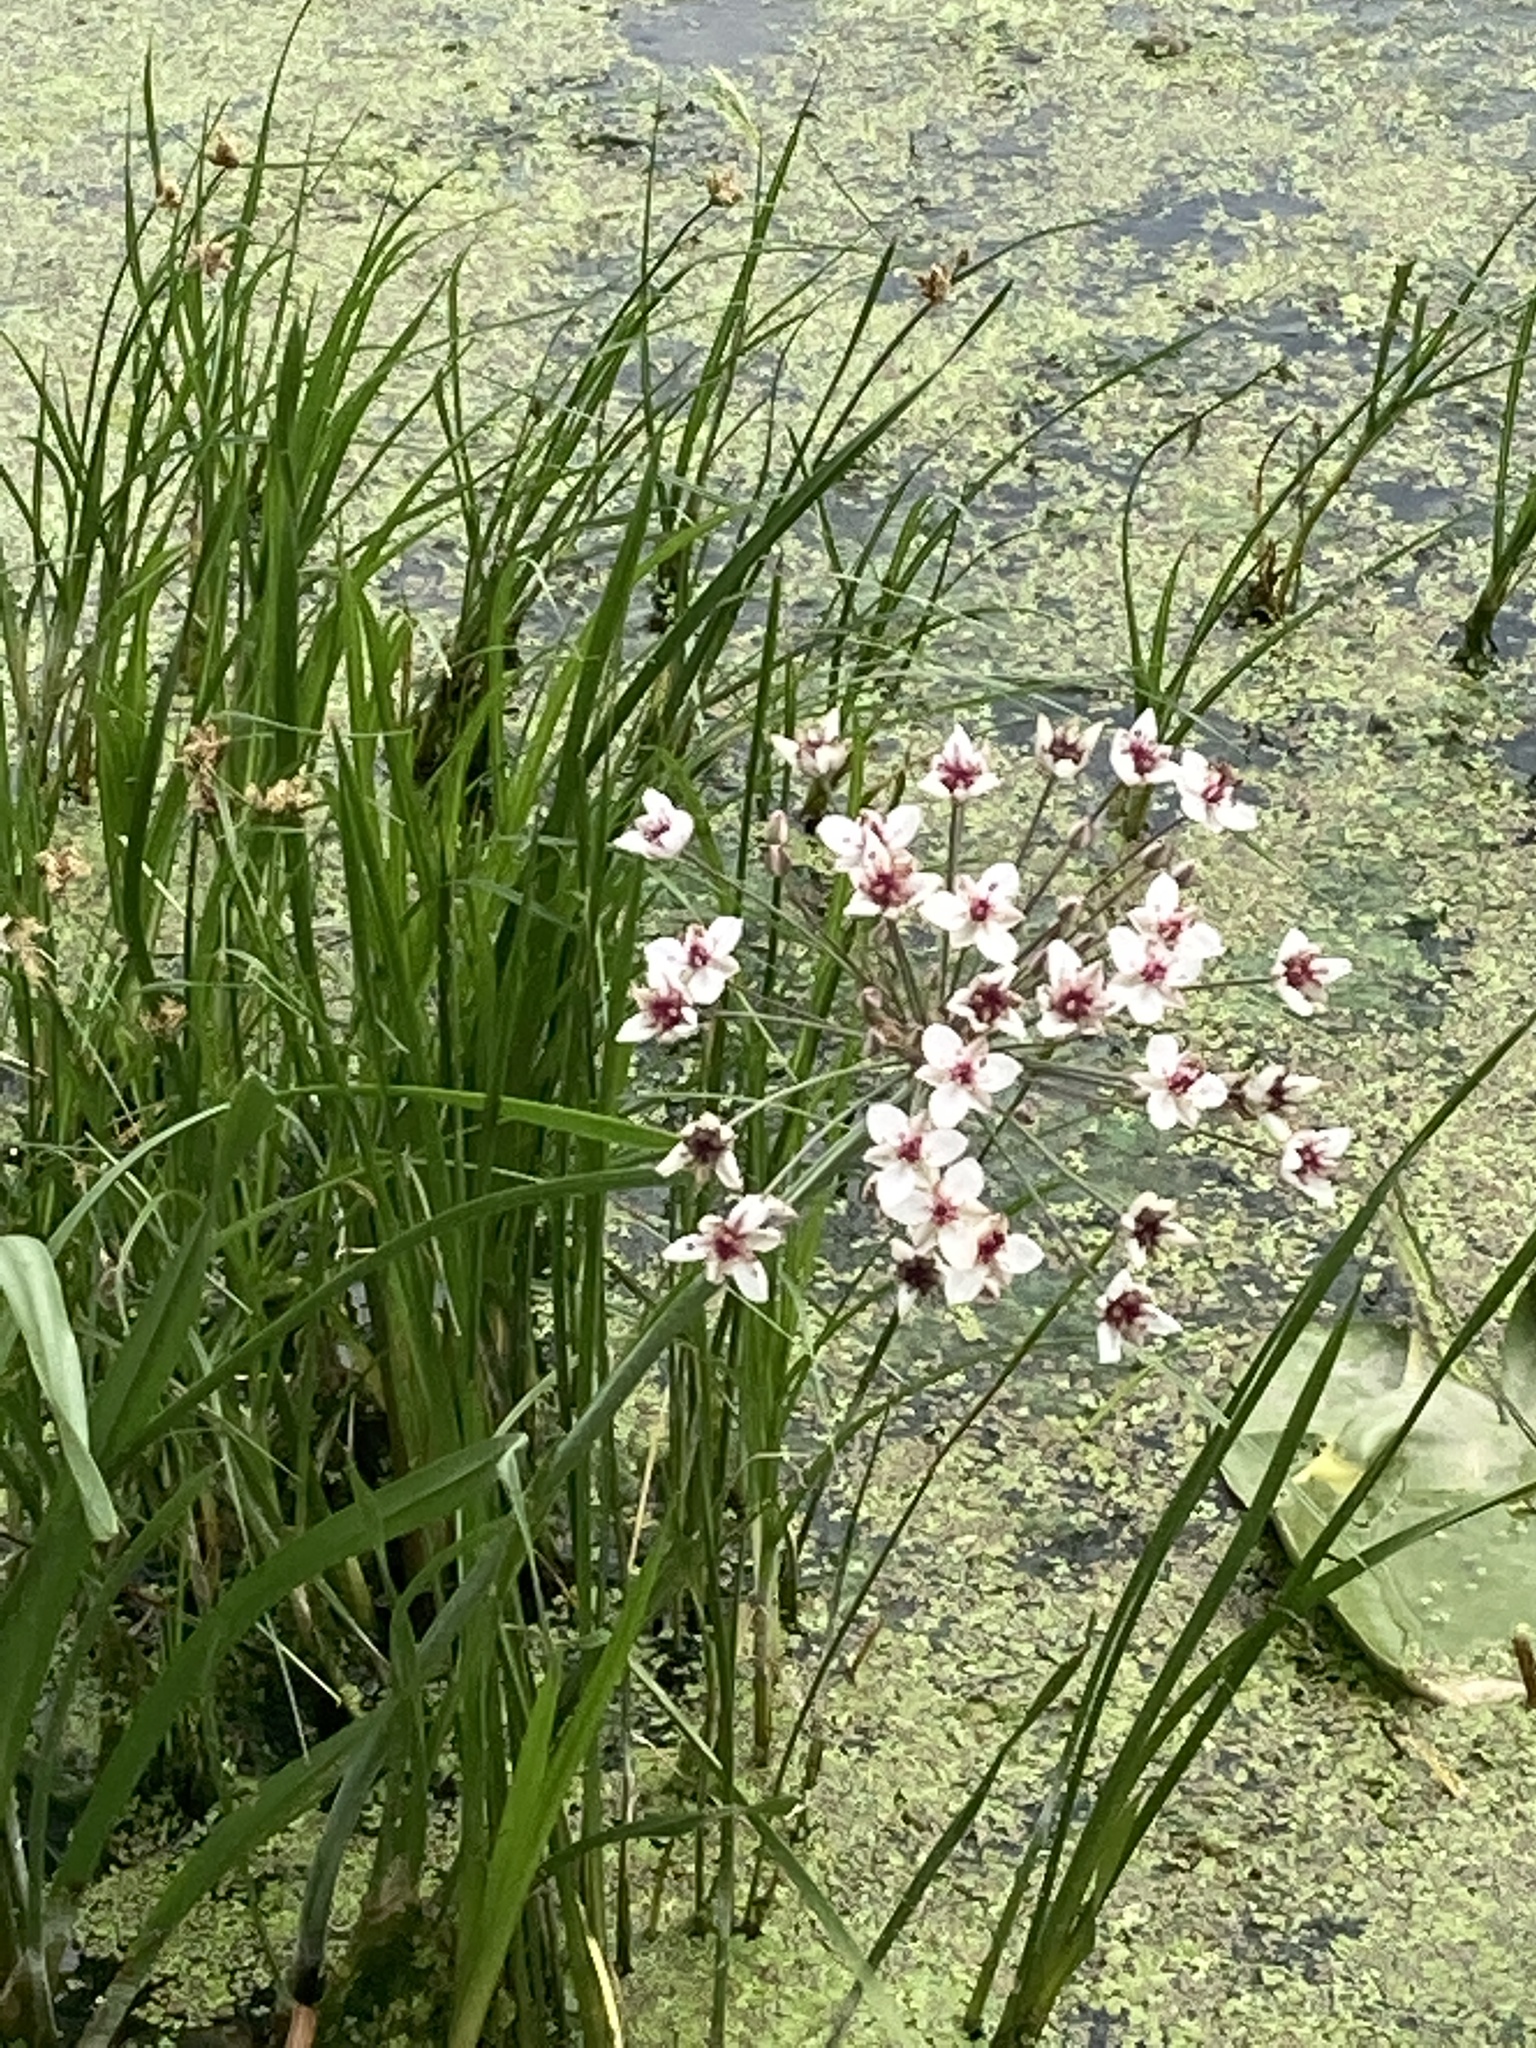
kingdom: Plantae
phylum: Tracheophyta
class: Liliopsida
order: Alismatales
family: Butomaceae
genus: Butomus
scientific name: Butomus umbellatus
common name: Flowering-rush
